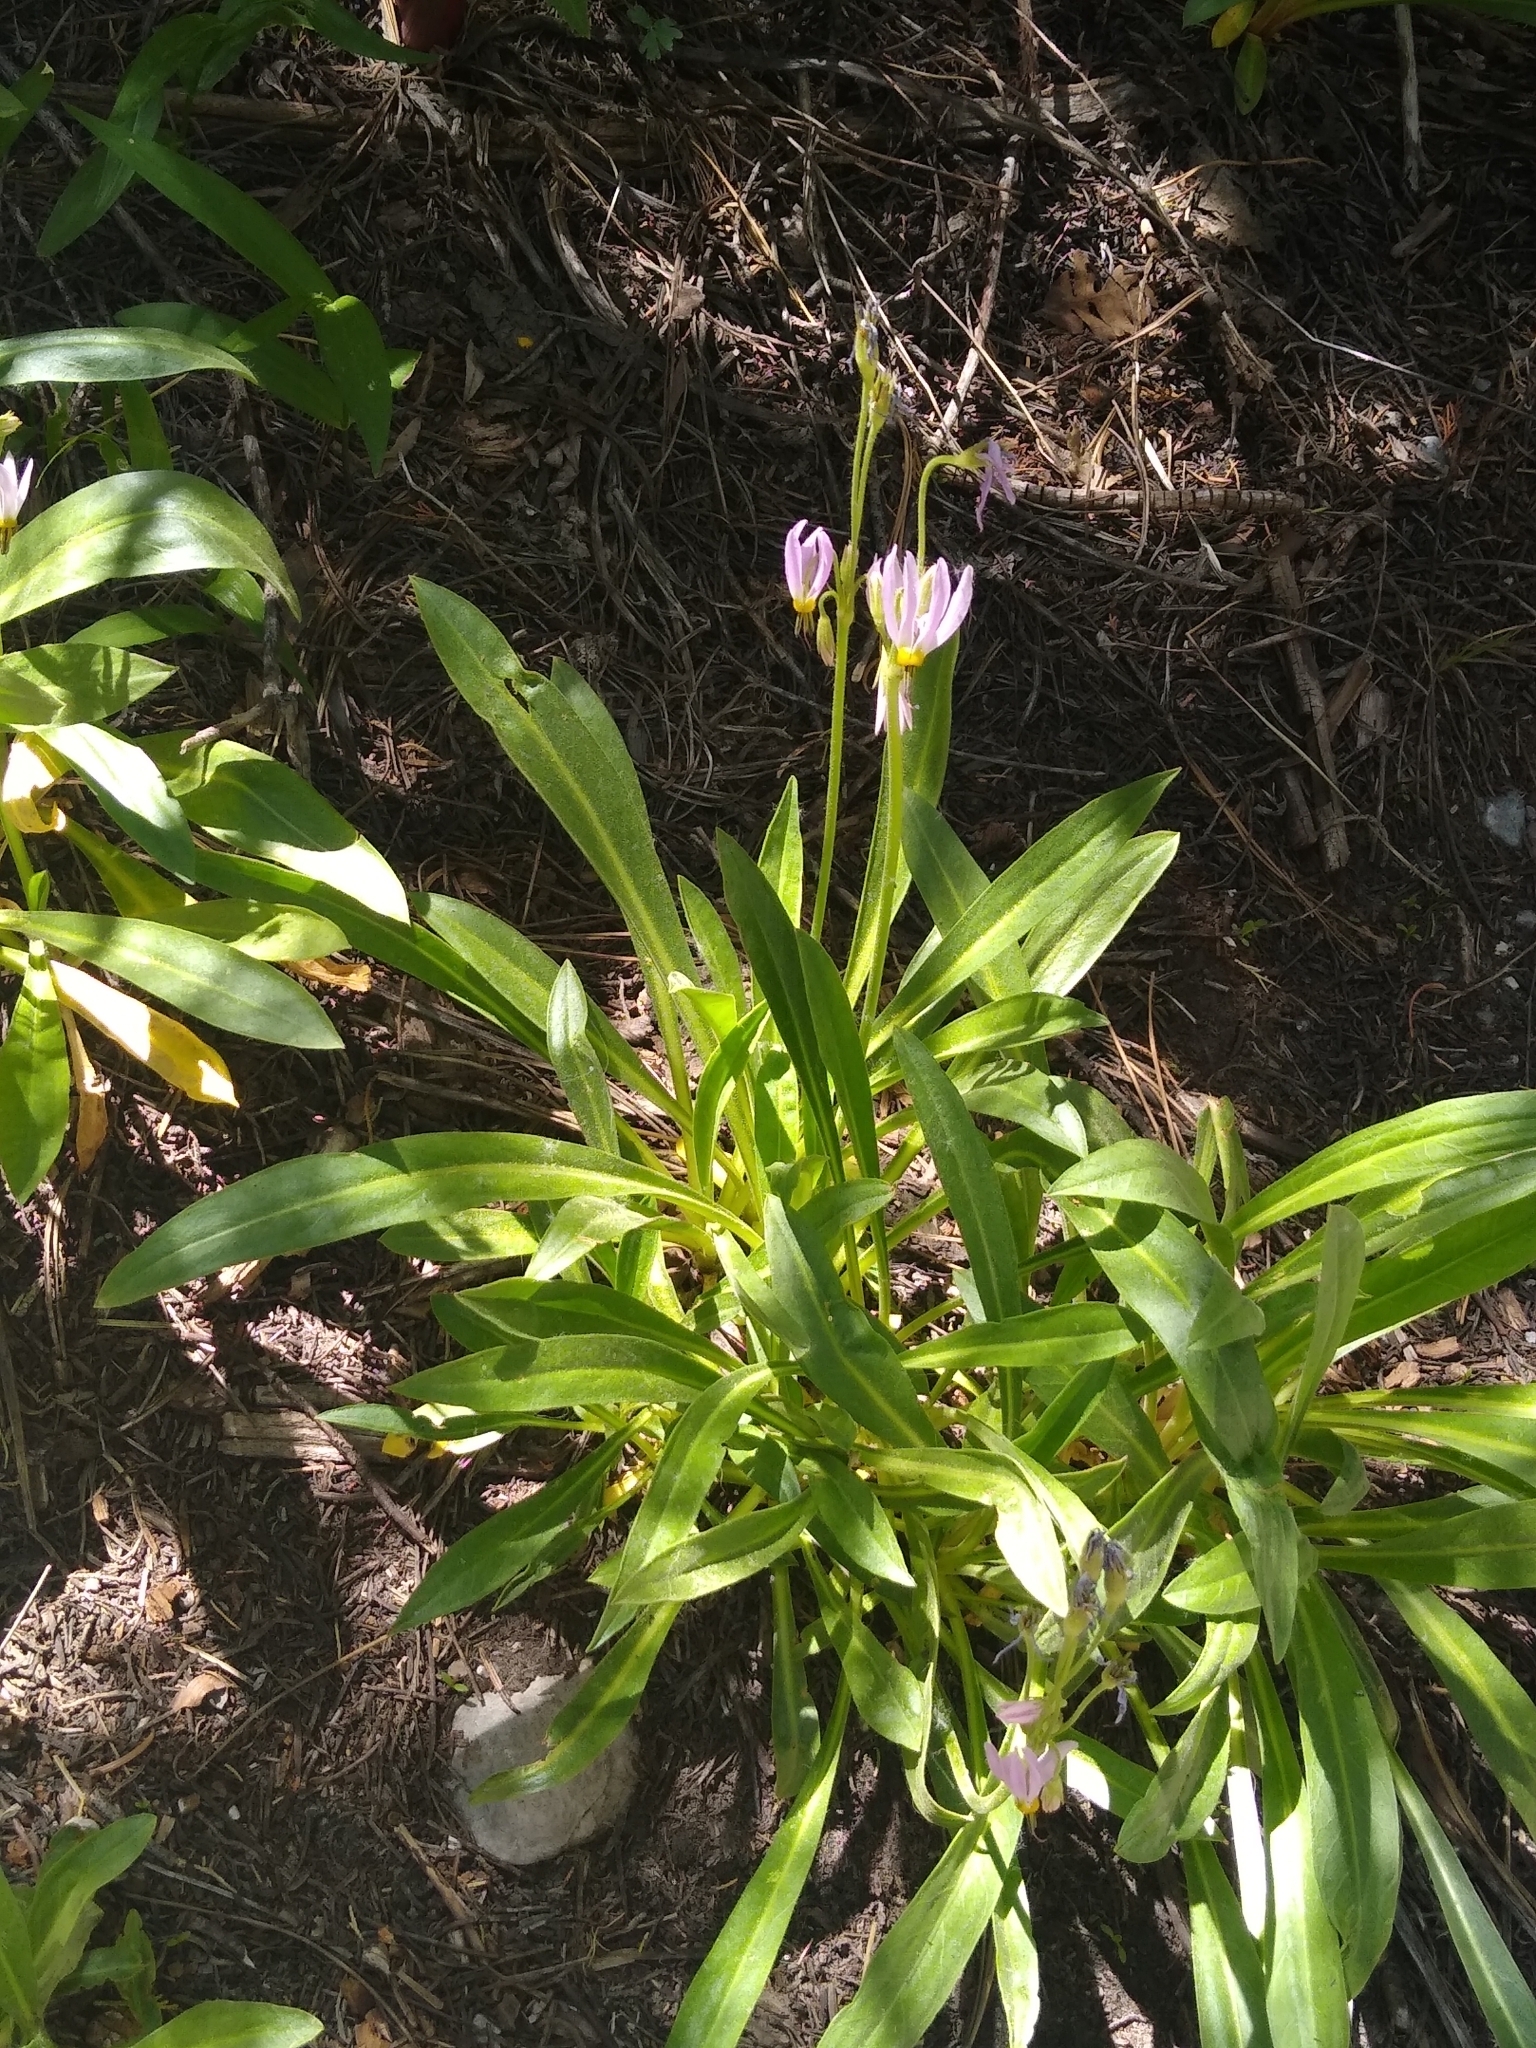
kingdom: Plantae
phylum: Tracheophyta
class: Magnoliopsida
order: Ericales
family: Primulaceae
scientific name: Primulaceae
